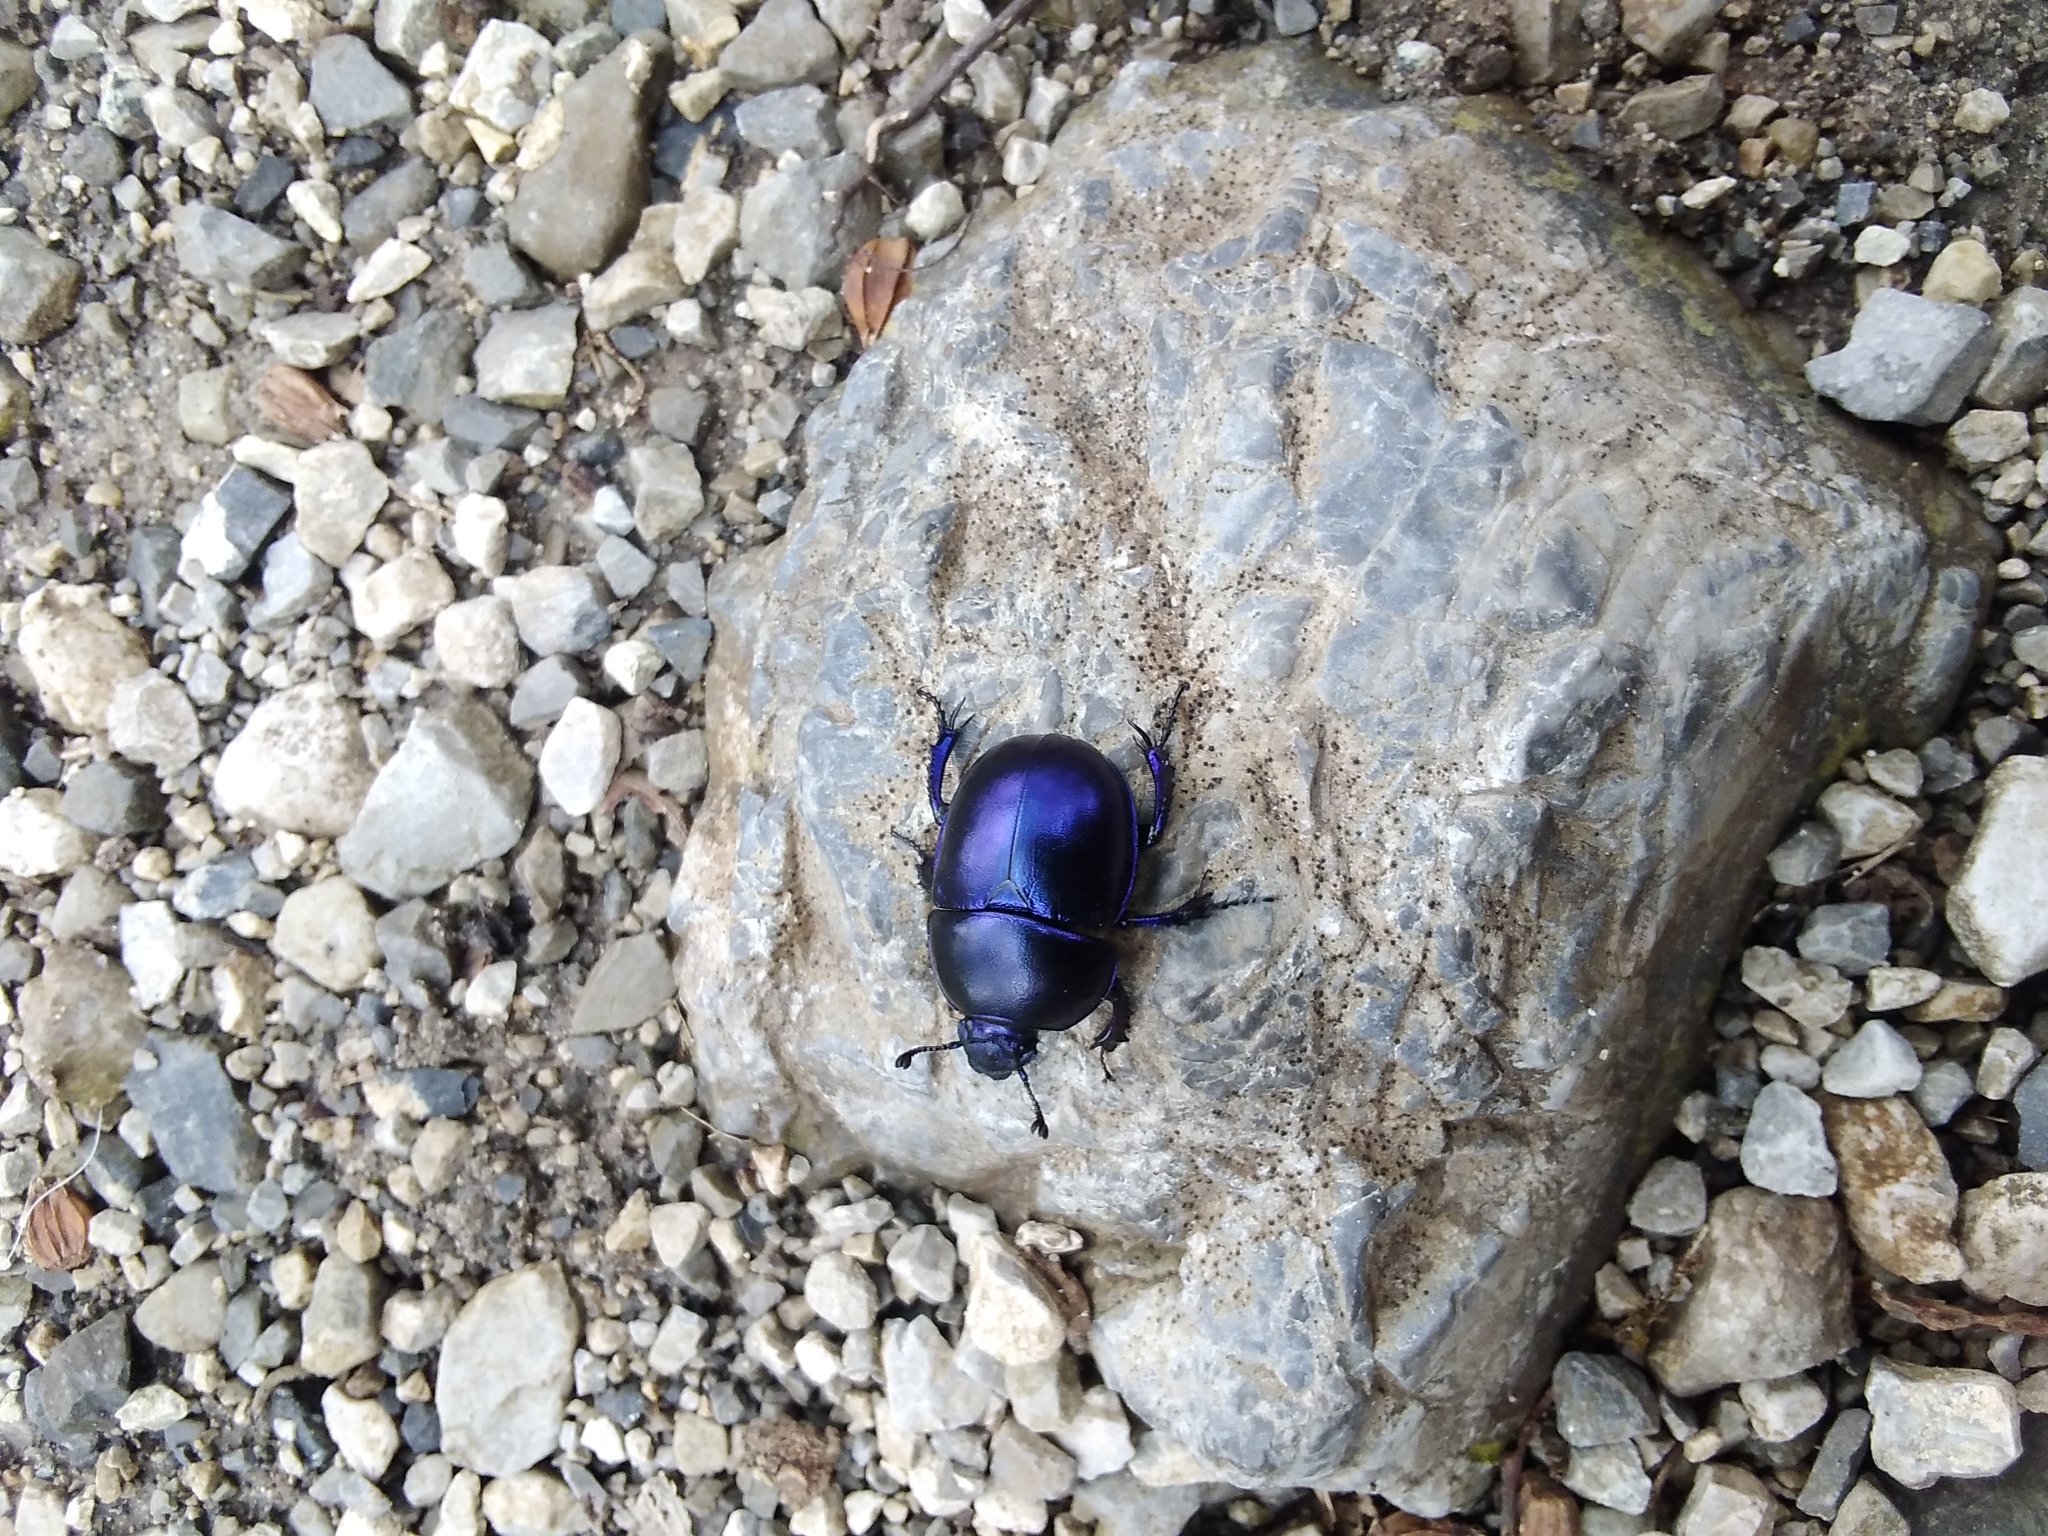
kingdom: Animalia
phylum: Arthropoda
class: Insecta
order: Coleoptera
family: Geotrupidae
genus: Trypocopris
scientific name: Trypocopris vernalis
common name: Spring dumbledor
